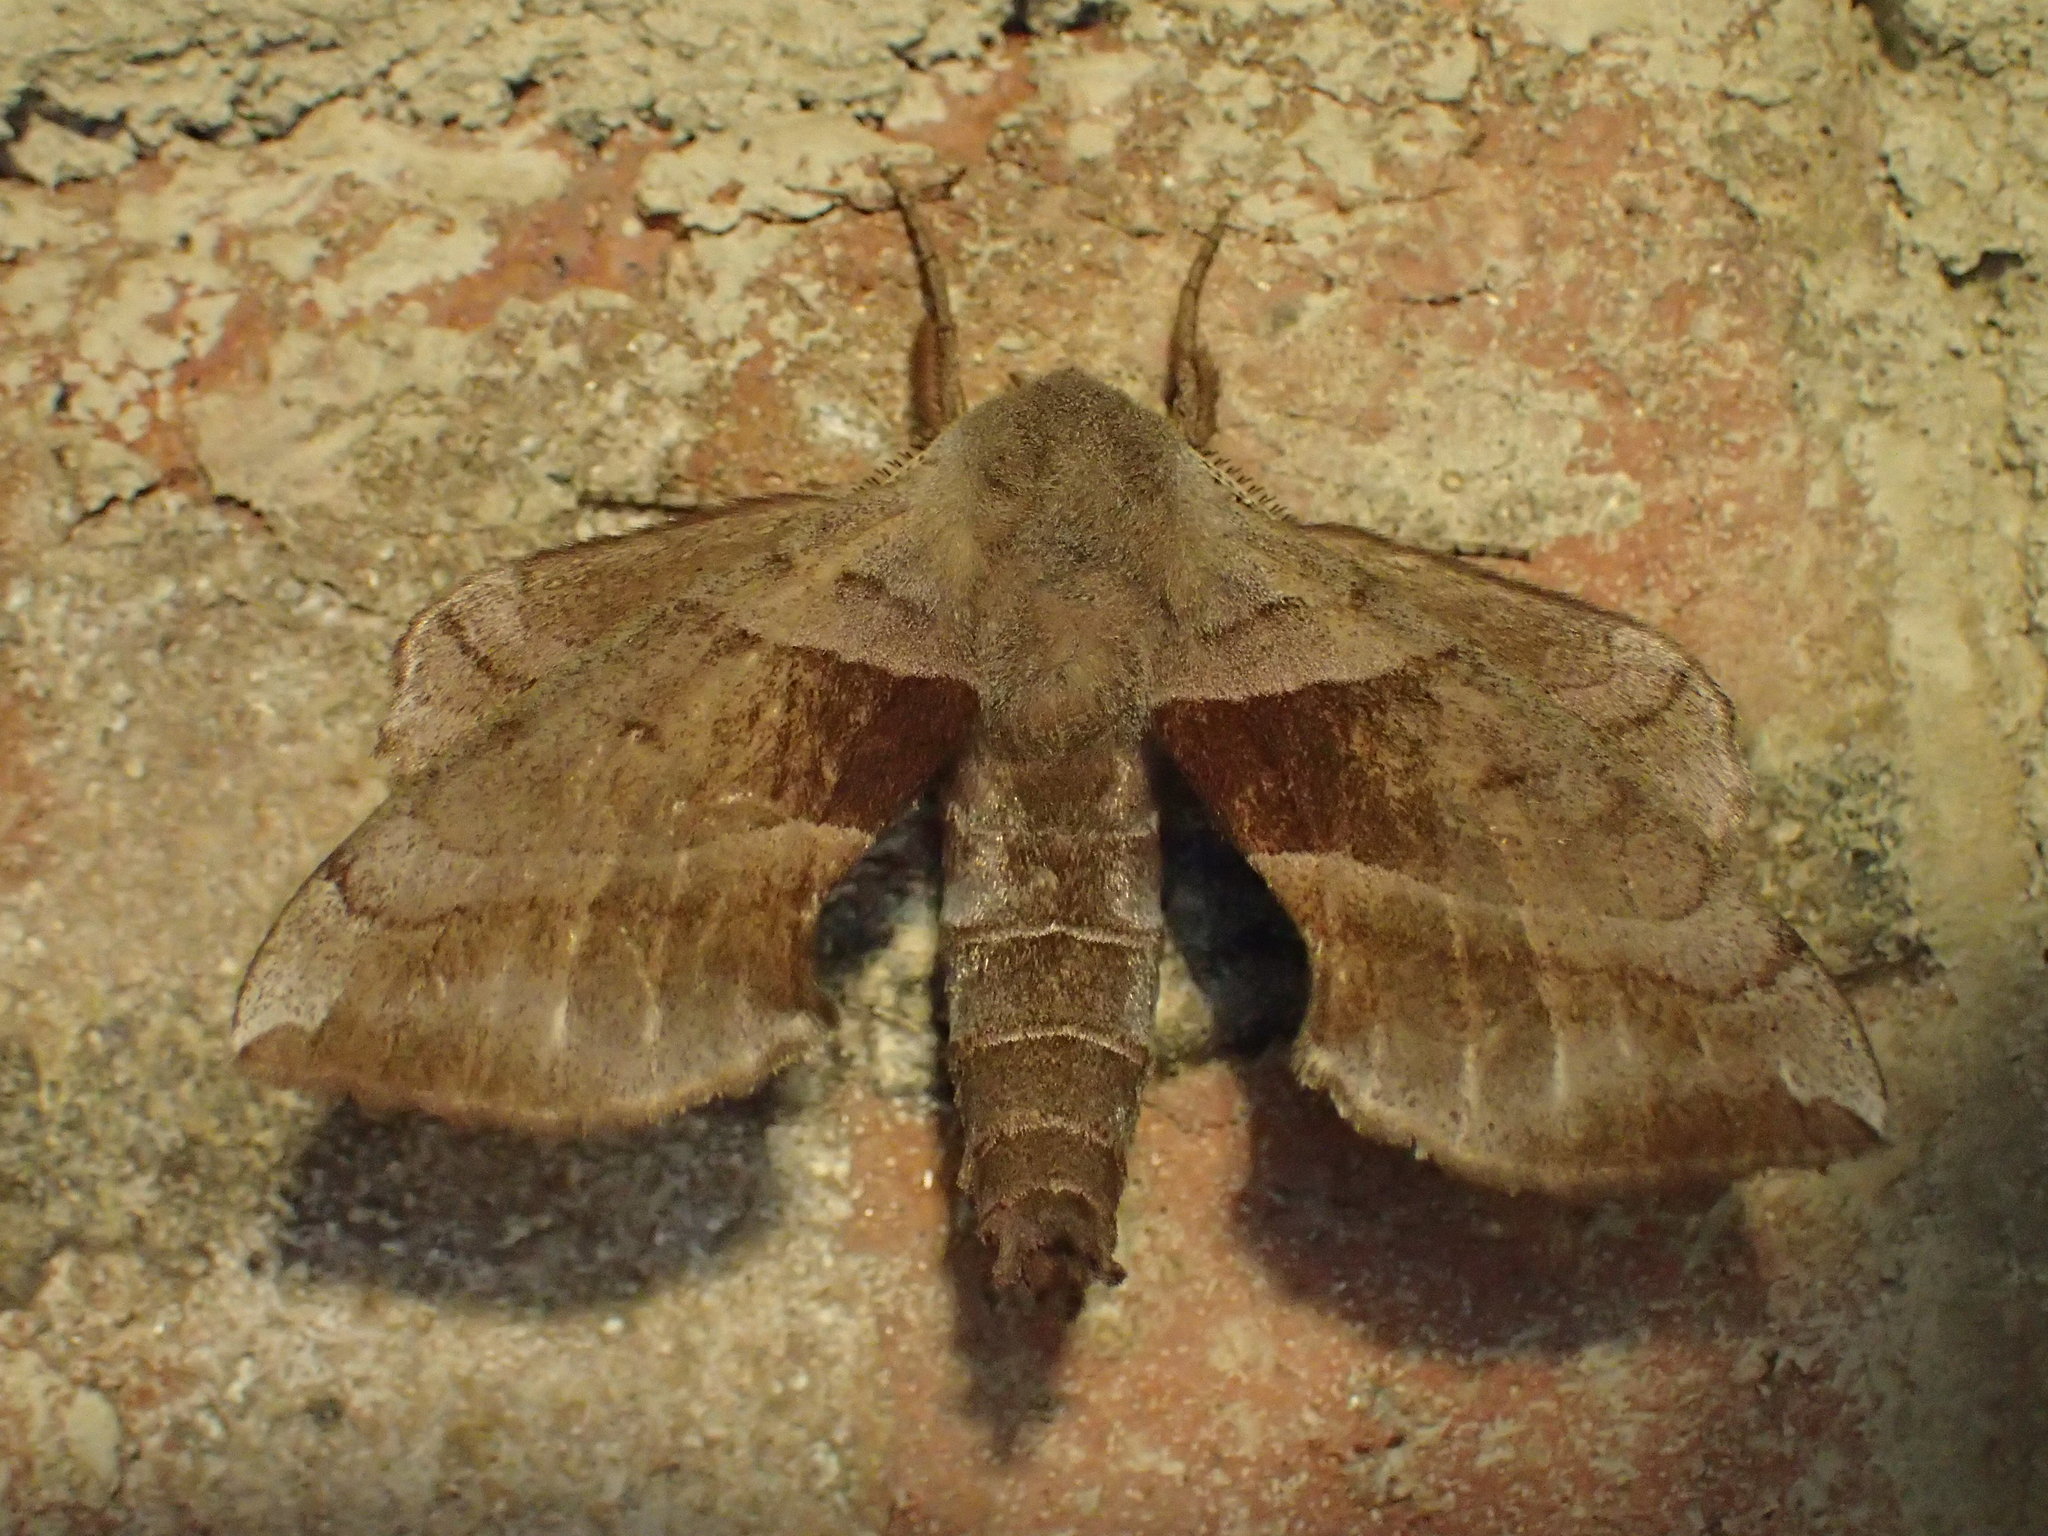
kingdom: Animalia
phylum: Arthropoda
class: Insecta
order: Lepidoptera
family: Sphingidae
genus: Amorpha
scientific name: Amorpha juglandis
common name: Walnut sphinx
